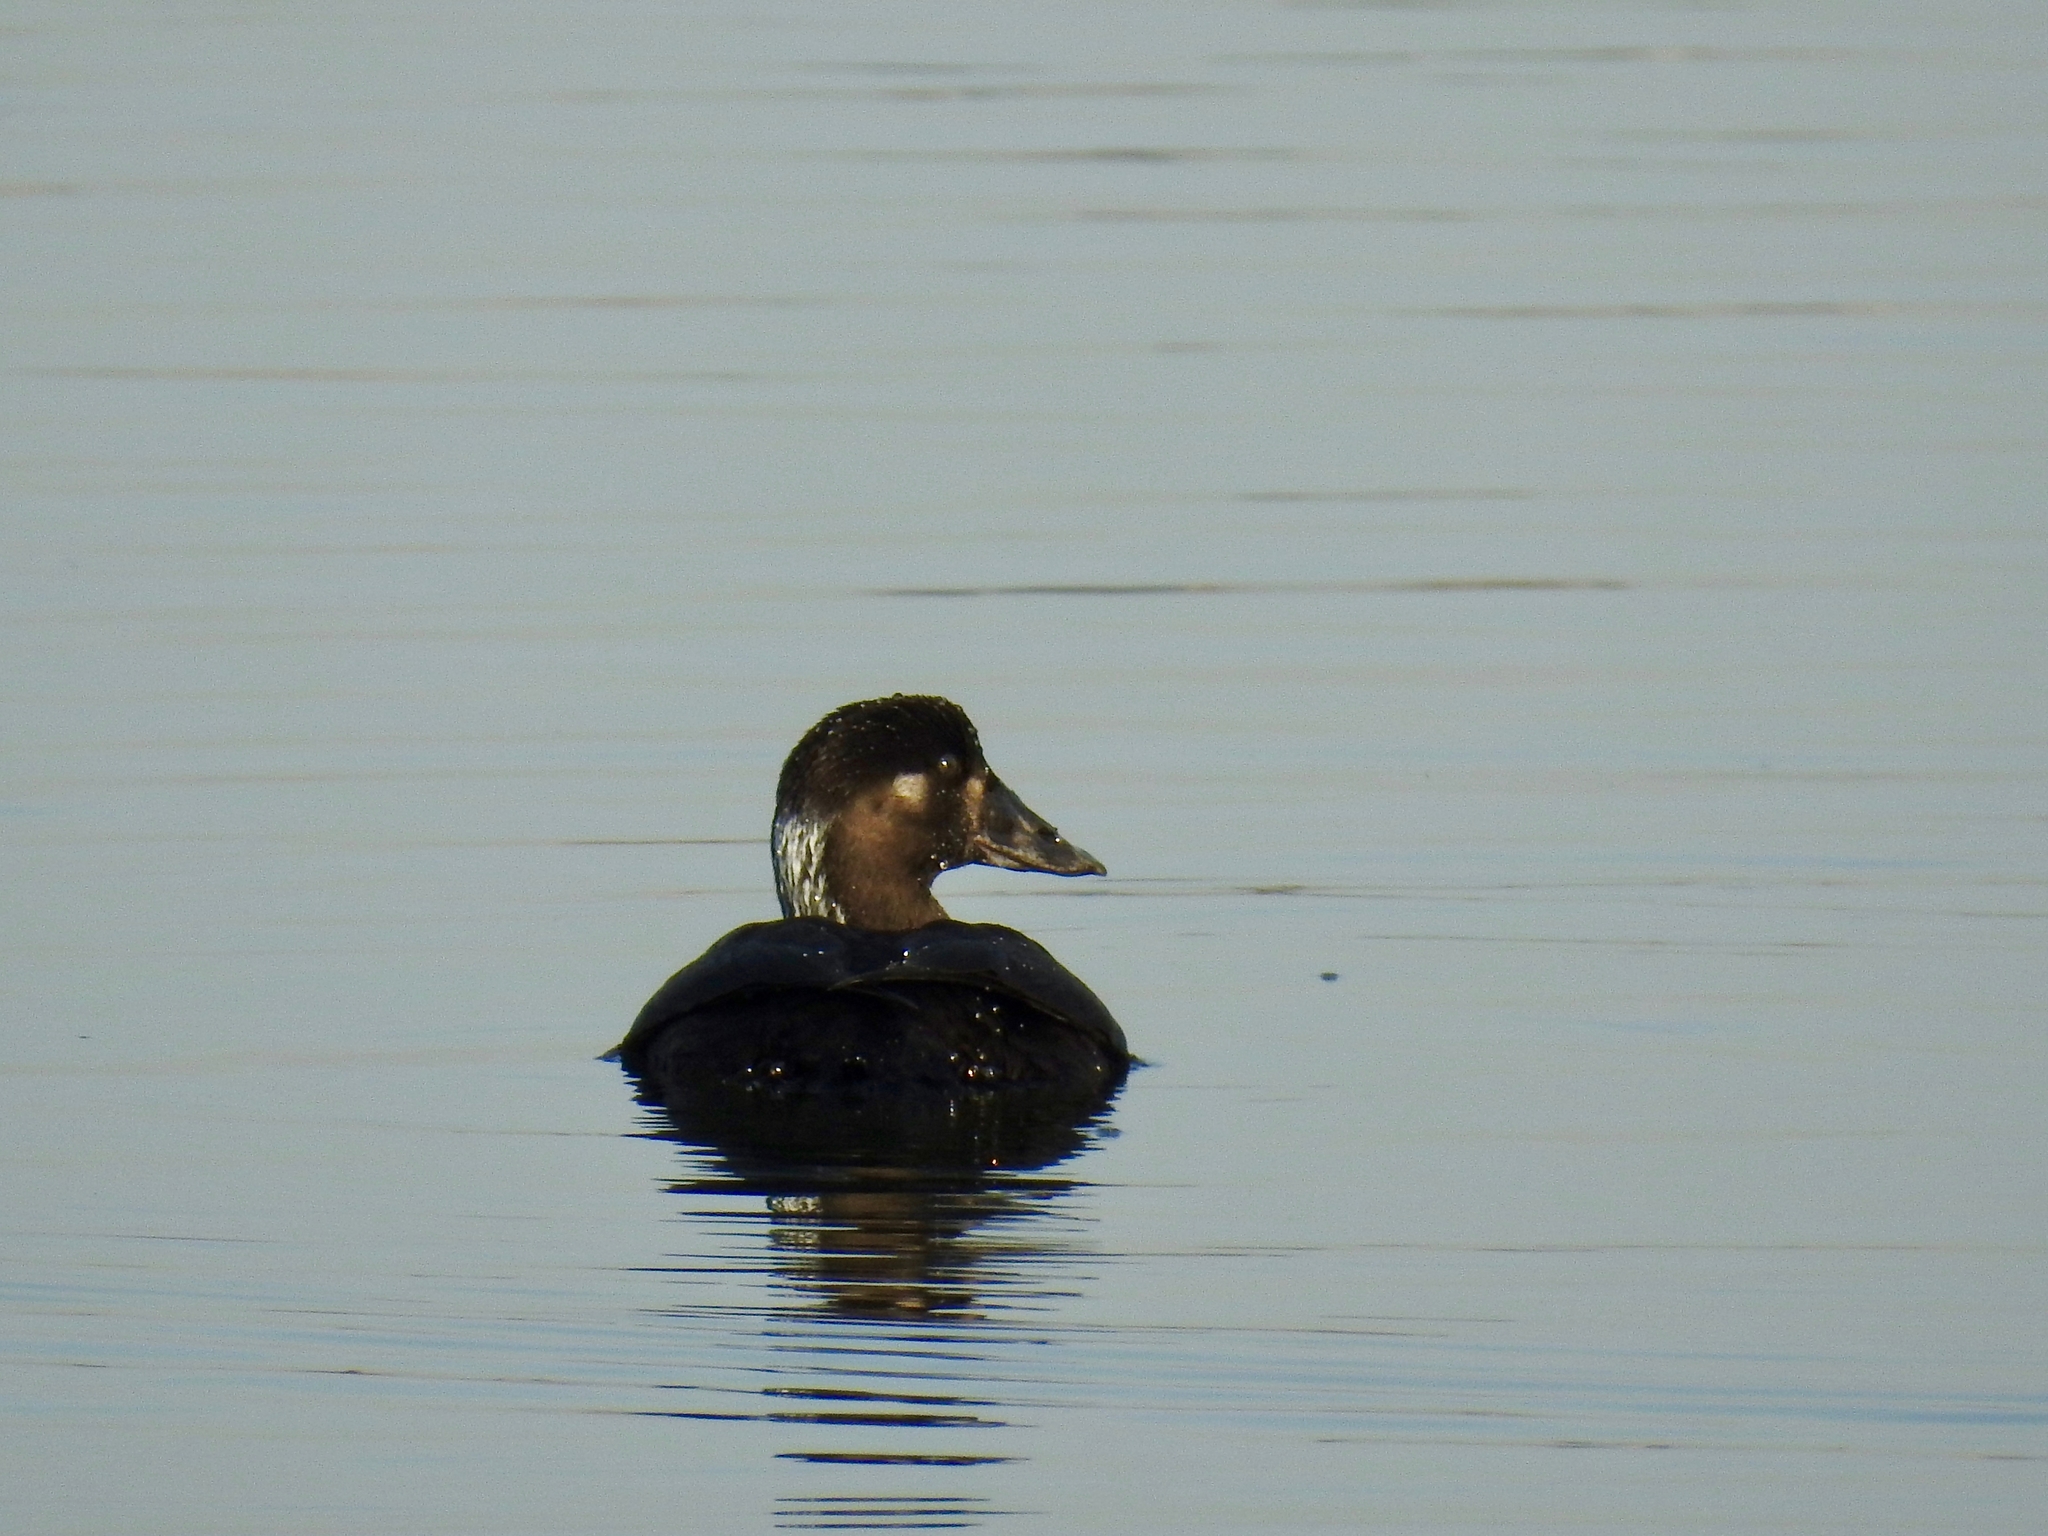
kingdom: Animalia
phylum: Chordata
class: Aves
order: Anseriformes
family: Anatidae
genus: Melanitta
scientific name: Melanitta perspicillata
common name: Surf scoter
